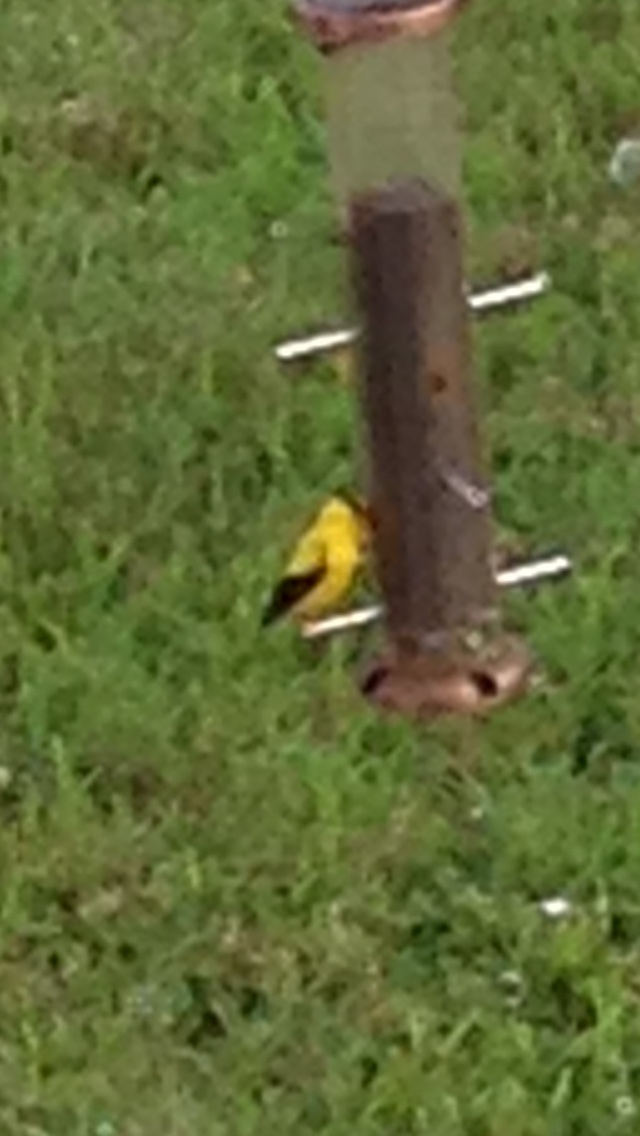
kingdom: Animalia
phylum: Chordata
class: Aves
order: Passeriformes
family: Fringillidae
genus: Spinus
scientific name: Spinus tristis
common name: American goldfinch
